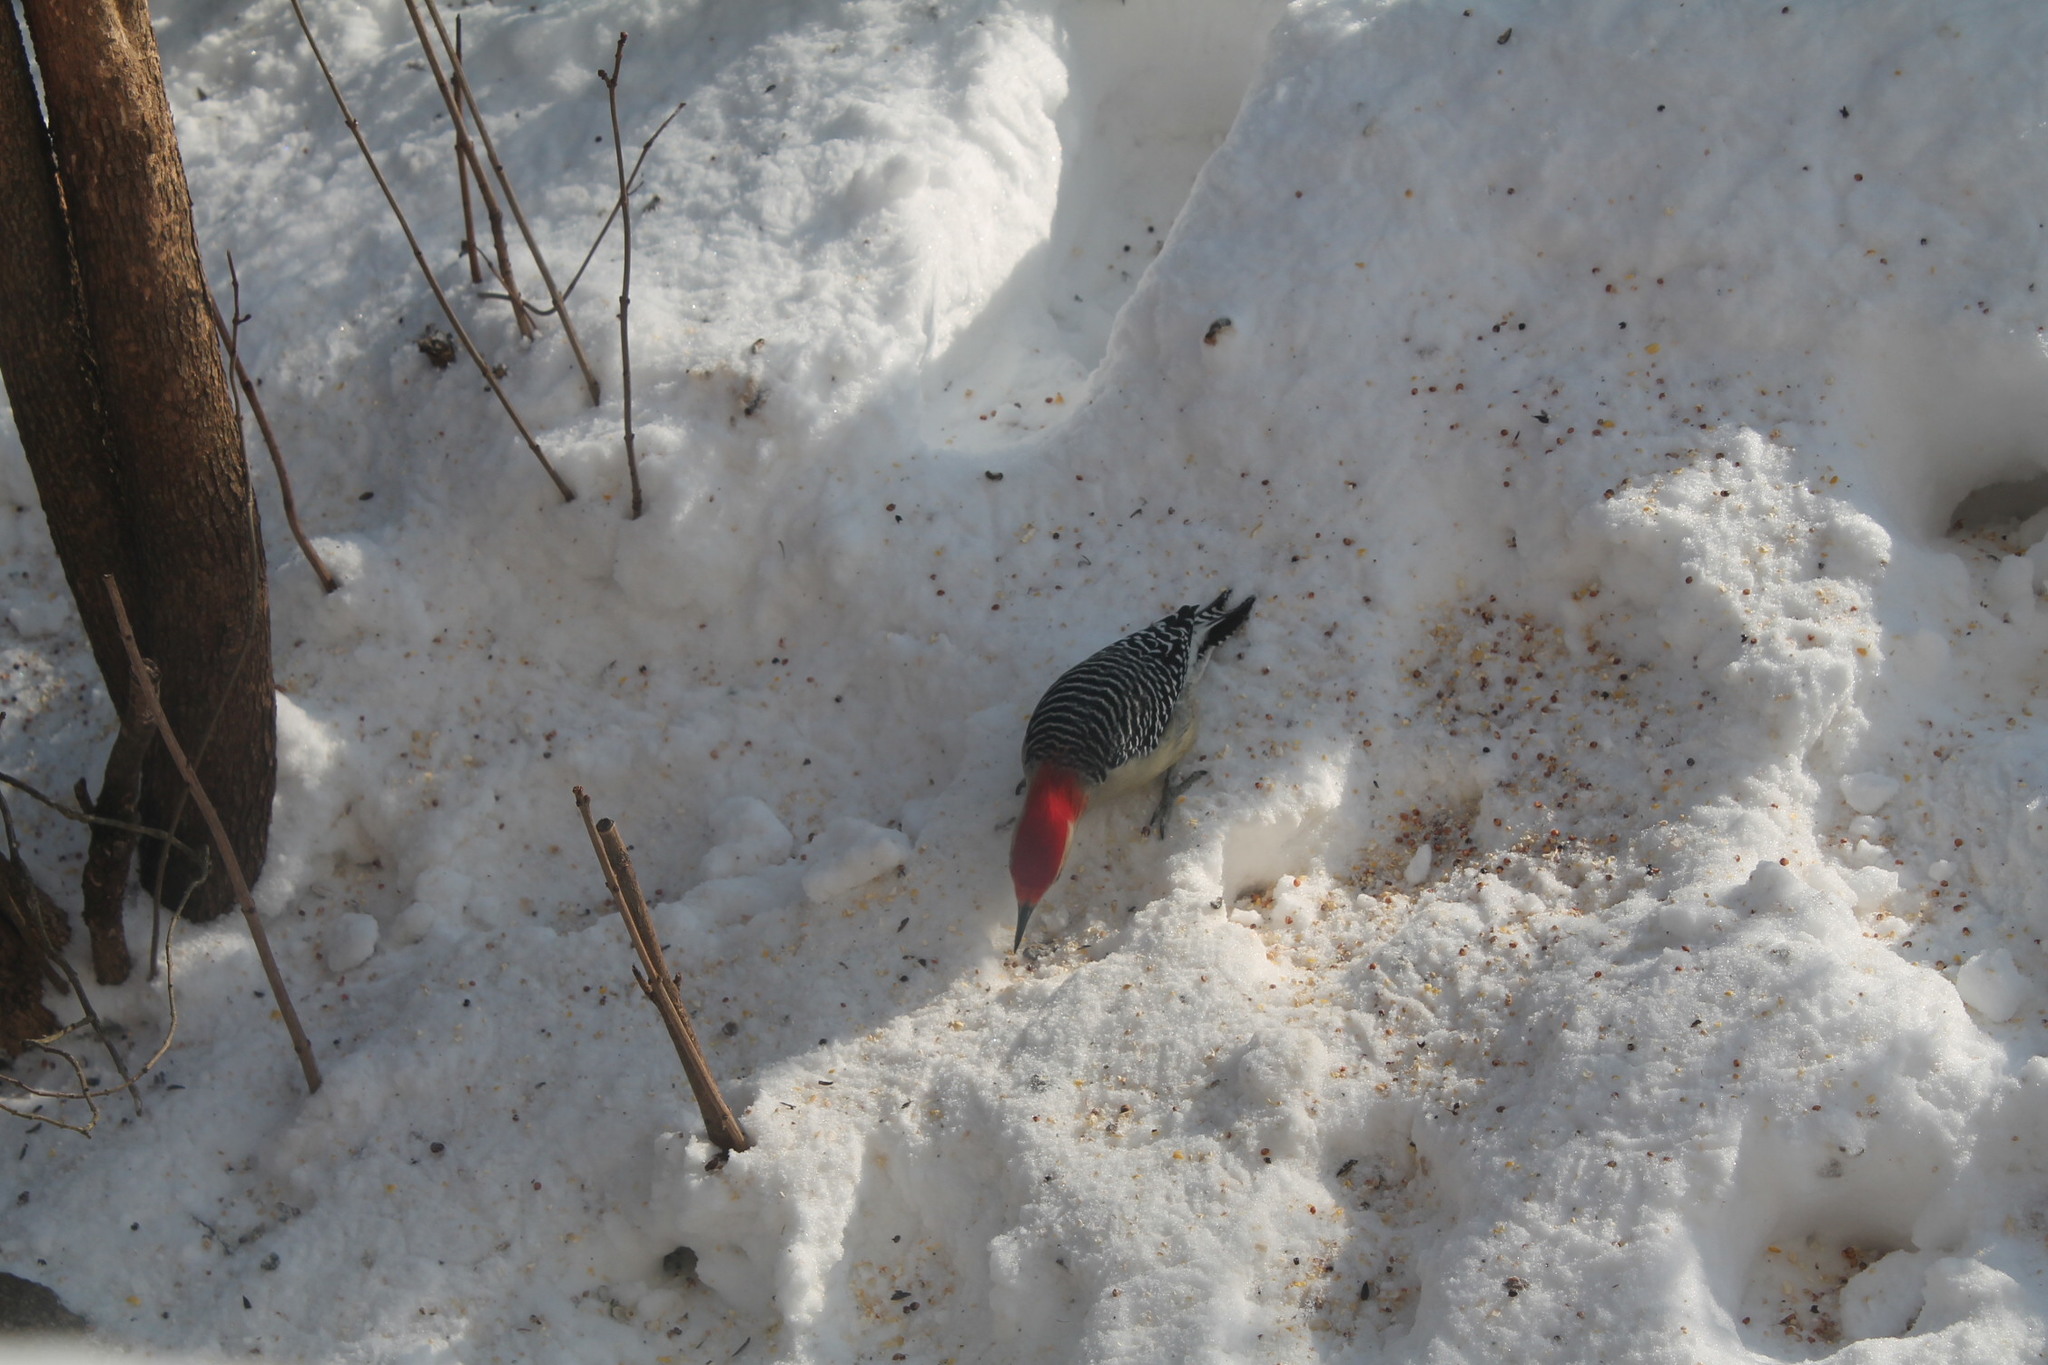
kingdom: Animalia
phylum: Chordata
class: Aves
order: Piciformes
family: Picidae
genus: Melanerpes
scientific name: Melanerpes carolinus
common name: Red-bellied woodpecker
